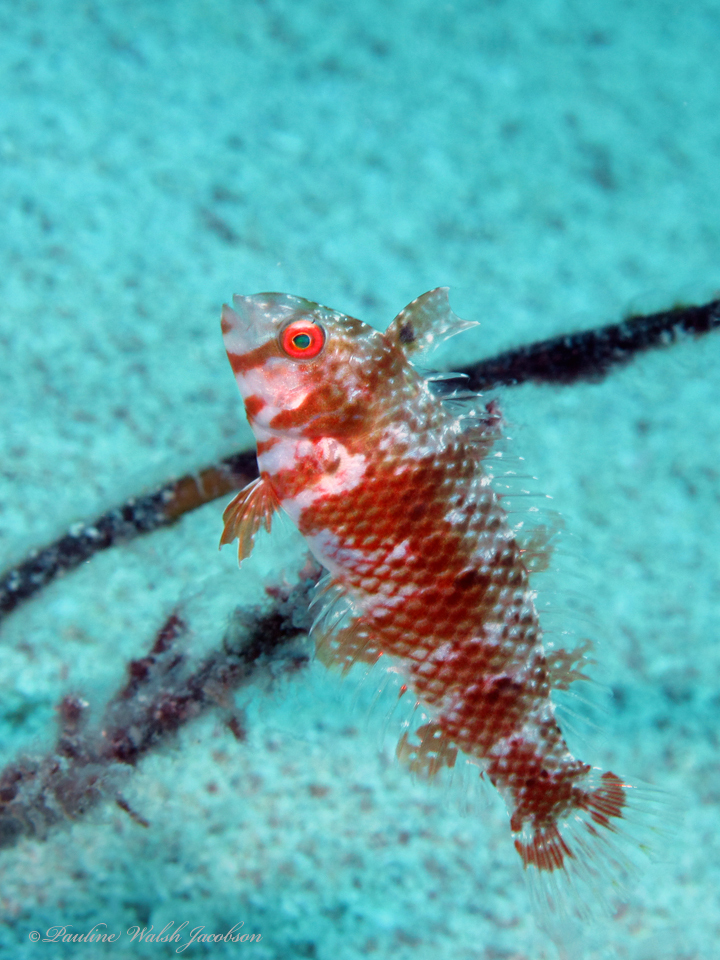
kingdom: Animalia
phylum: Chordata
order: Perciformes
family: Labridae
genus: Xyrichtys
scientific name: Xyrichtys splendens
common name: Green razorfish
